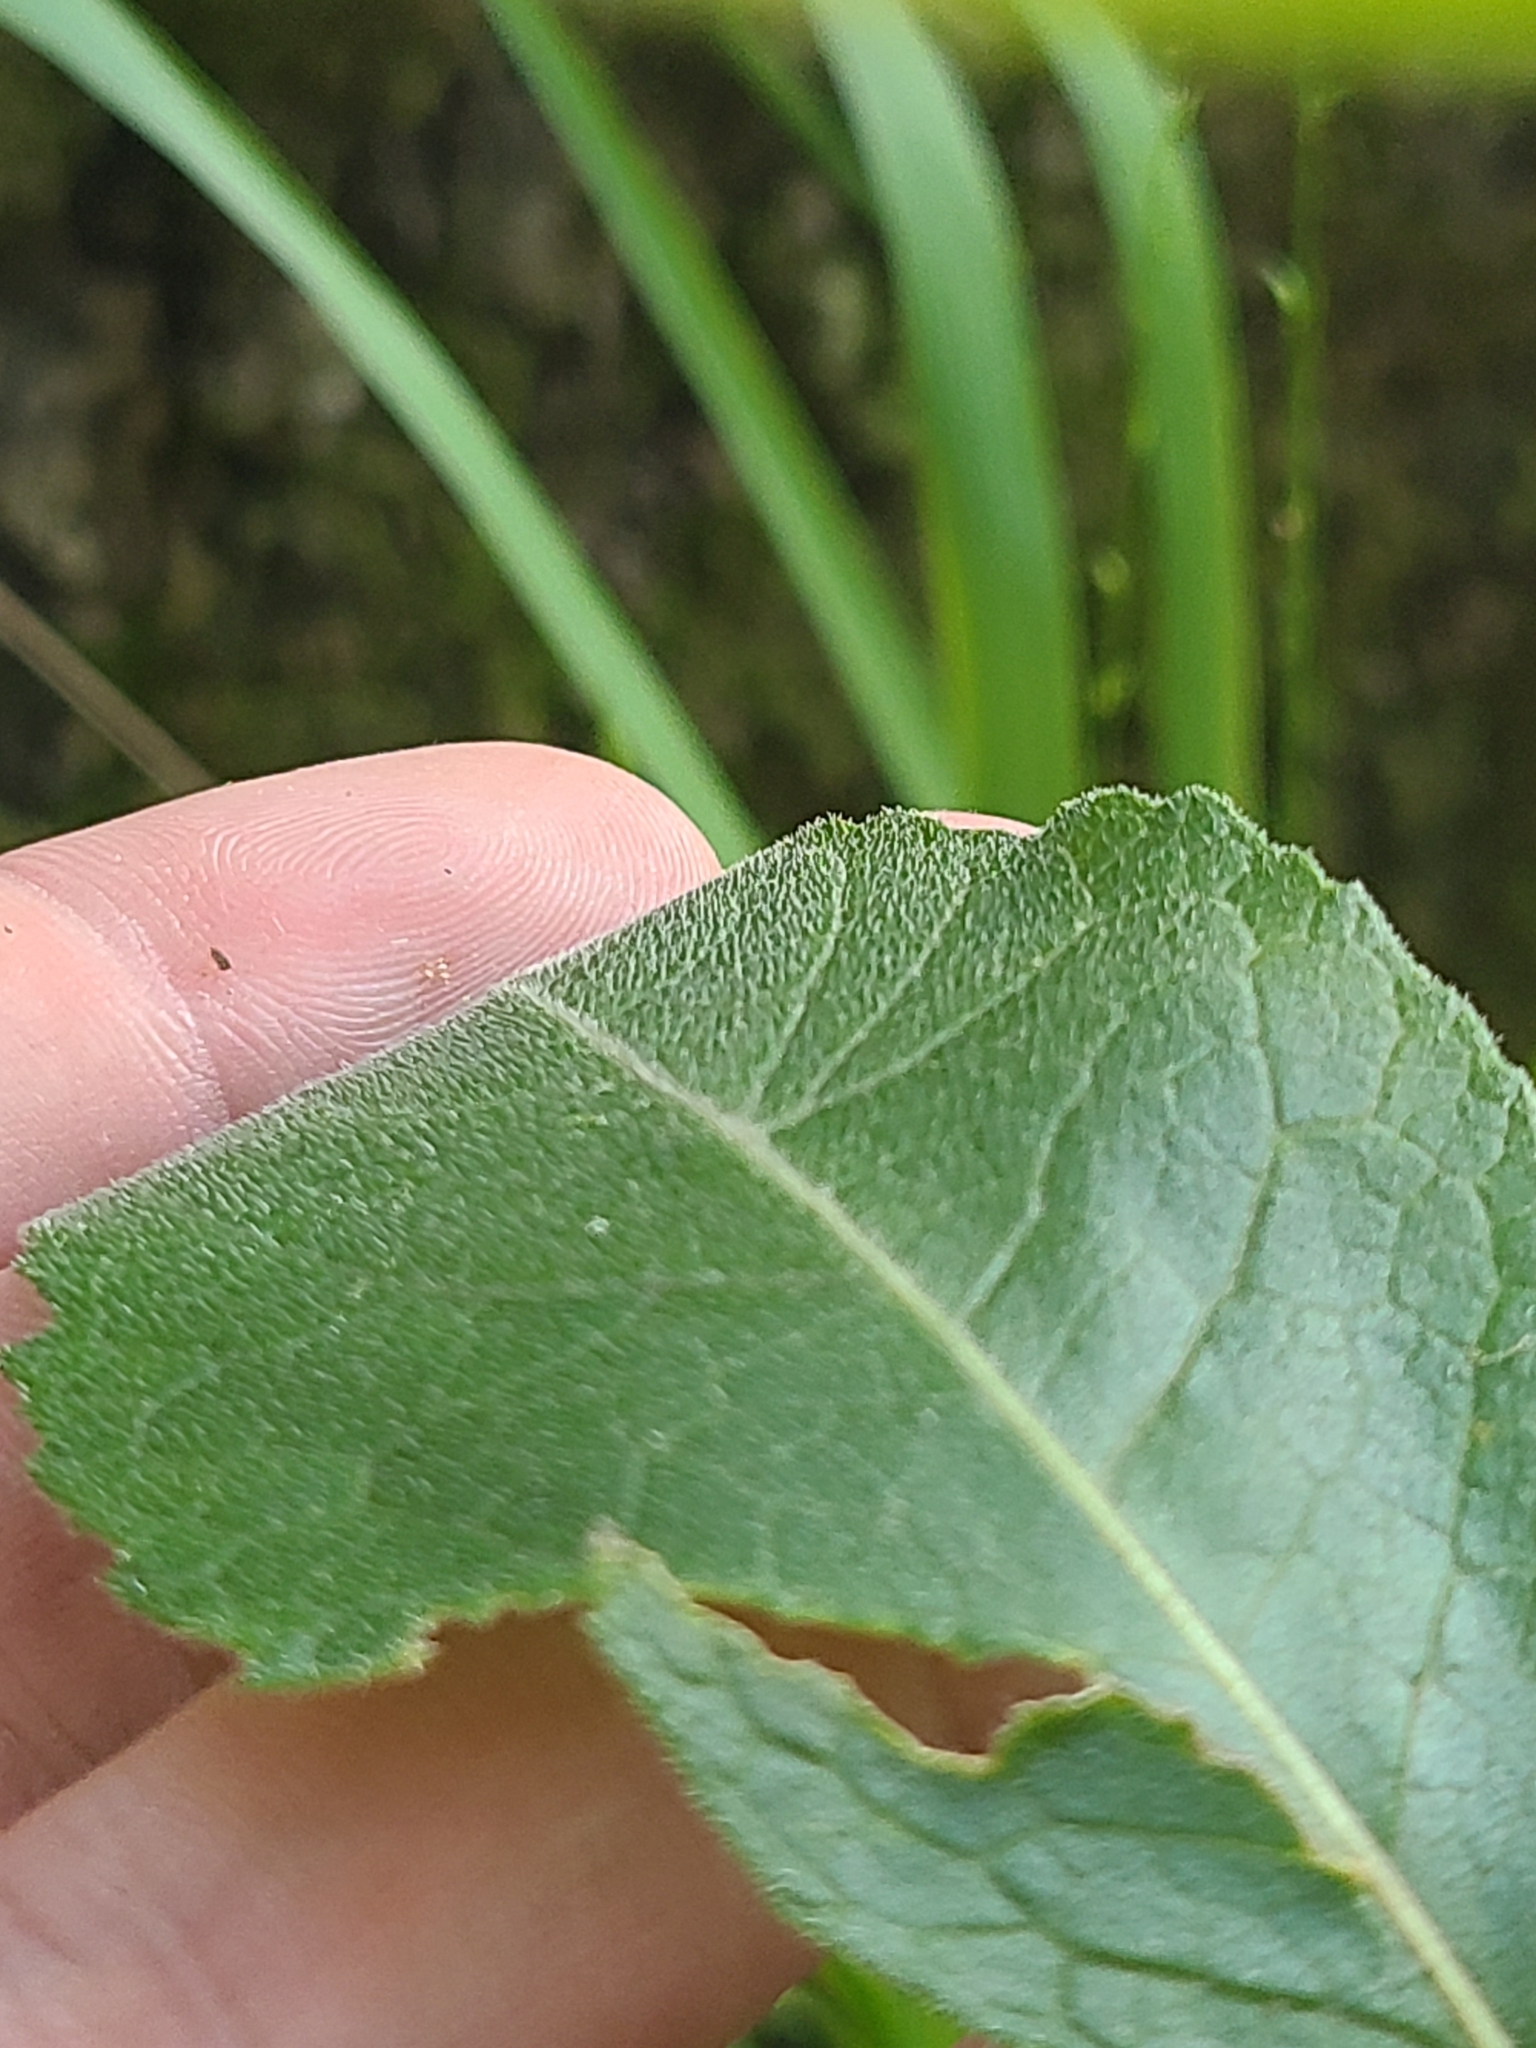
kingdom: Plantae
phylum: Tracheophyta
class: Magnoliopsida
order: Asterales
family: Asteraceae
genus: Verbesina
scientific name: Verbesina helianthoides
